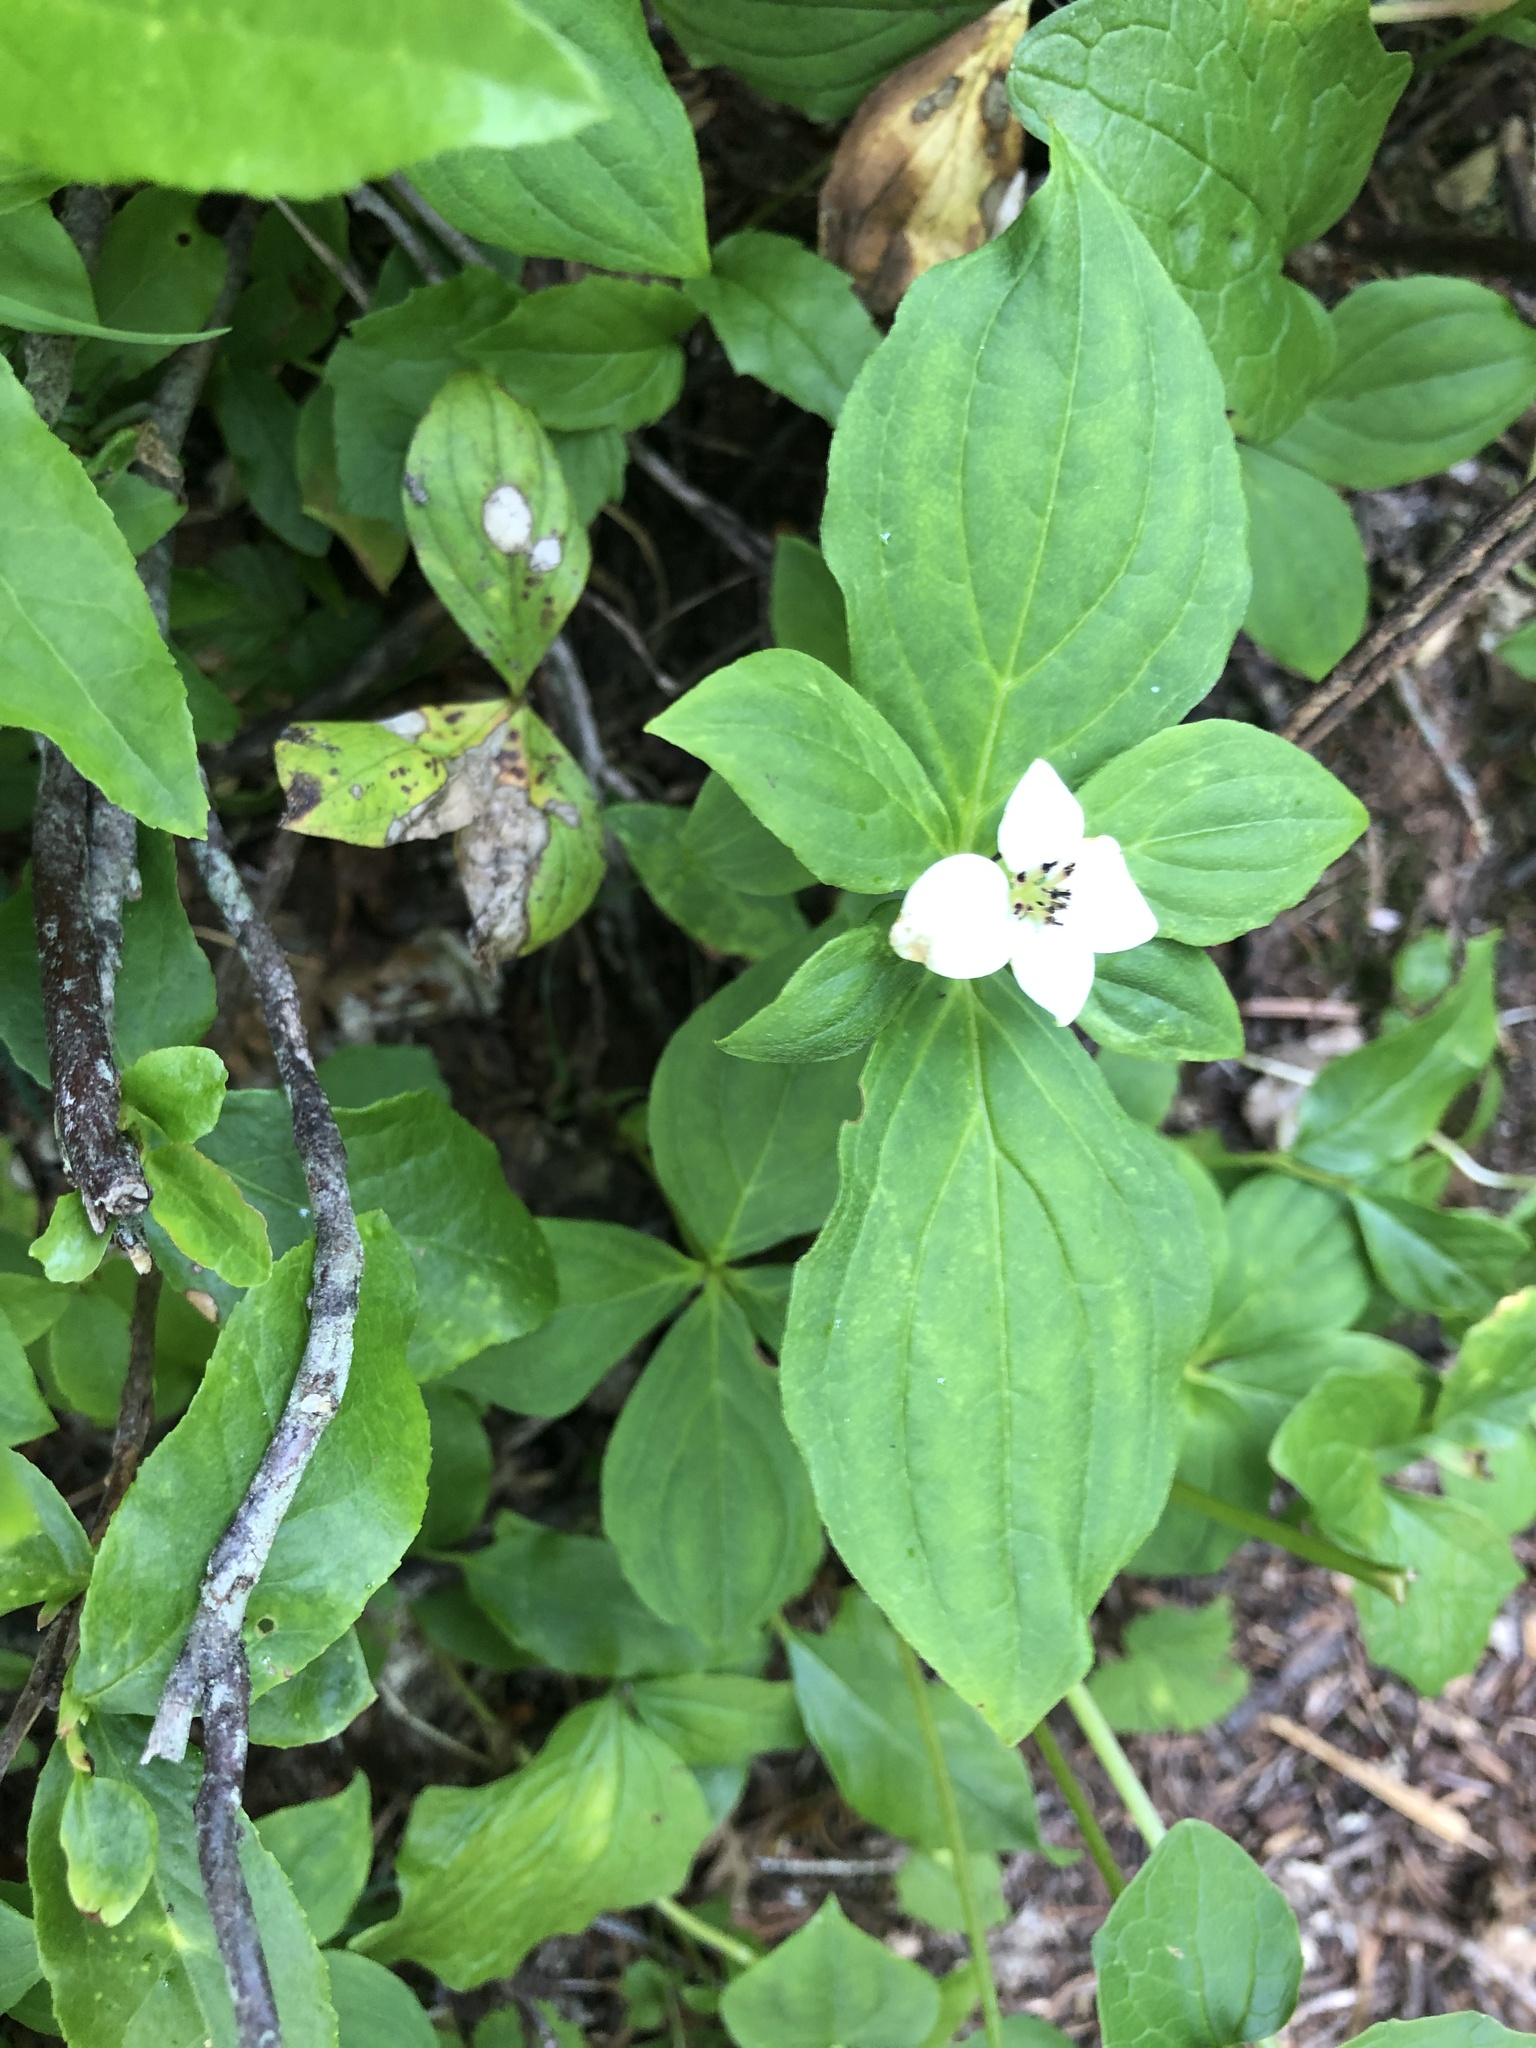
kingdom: Plantae
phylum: Tracheophyta
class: Magnoliopsida
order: Cornales
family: Cornaceae
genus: Cornus
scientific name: Cornus unalaschkensis
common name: Alaska bunchberry
